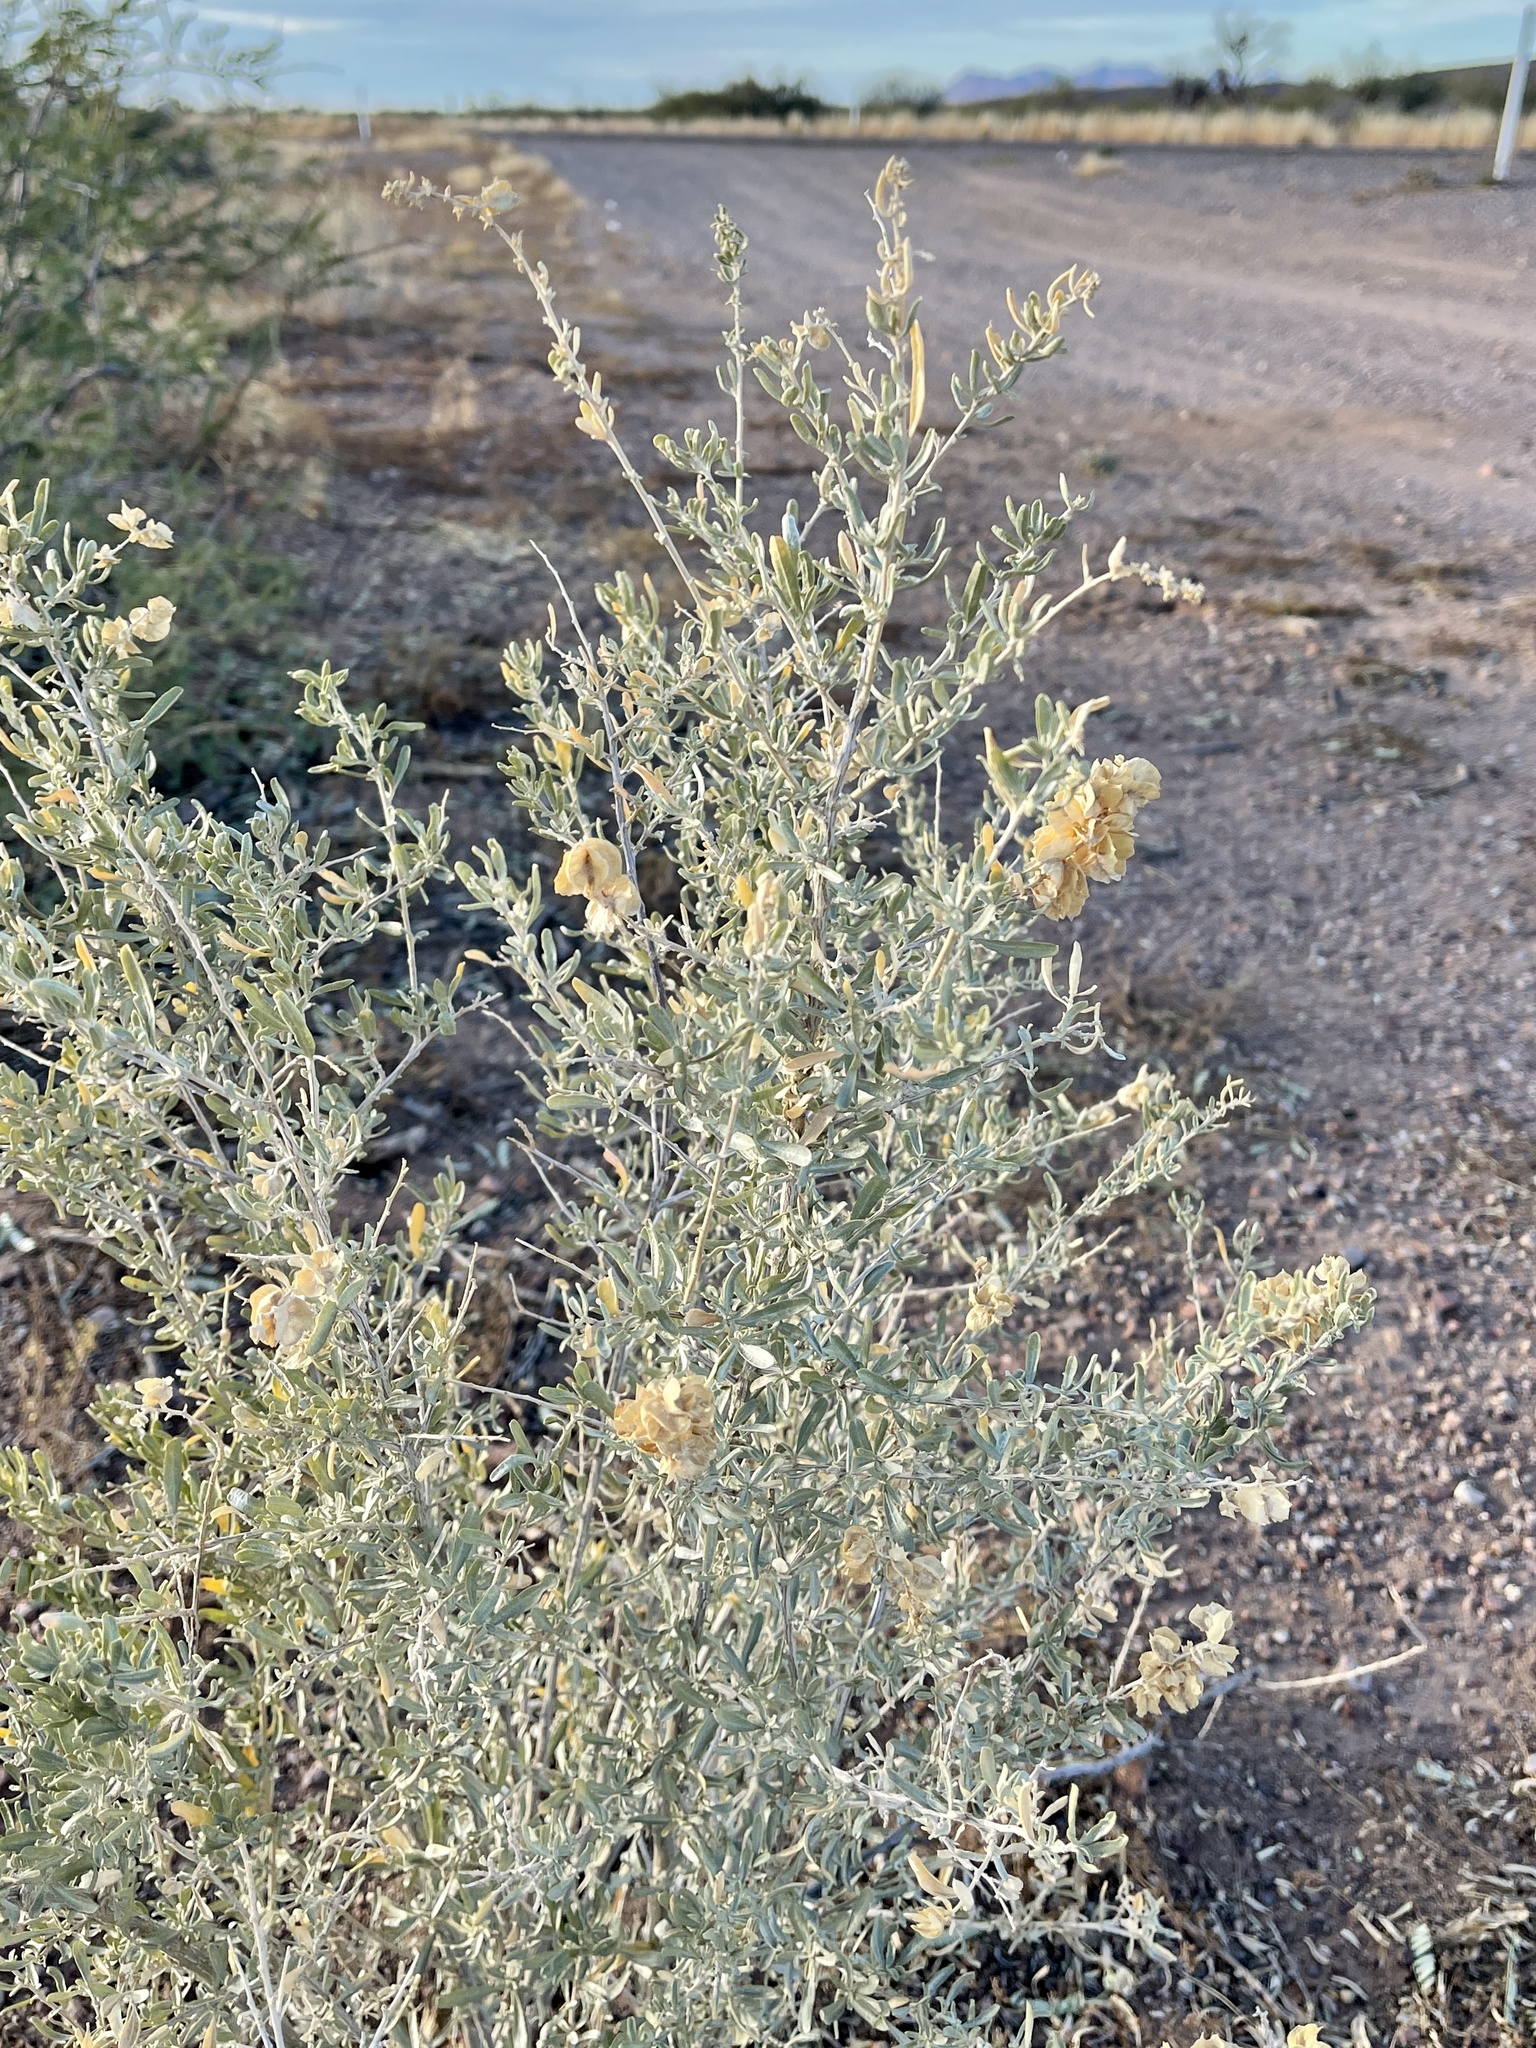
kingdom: Plantae
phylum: Tracheophyta
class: Magnoliopsida
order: Caryophyllales
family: Amaranthaceae
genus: Atriplex
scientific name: Atriplex polycarpa
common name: Desert saltbush
